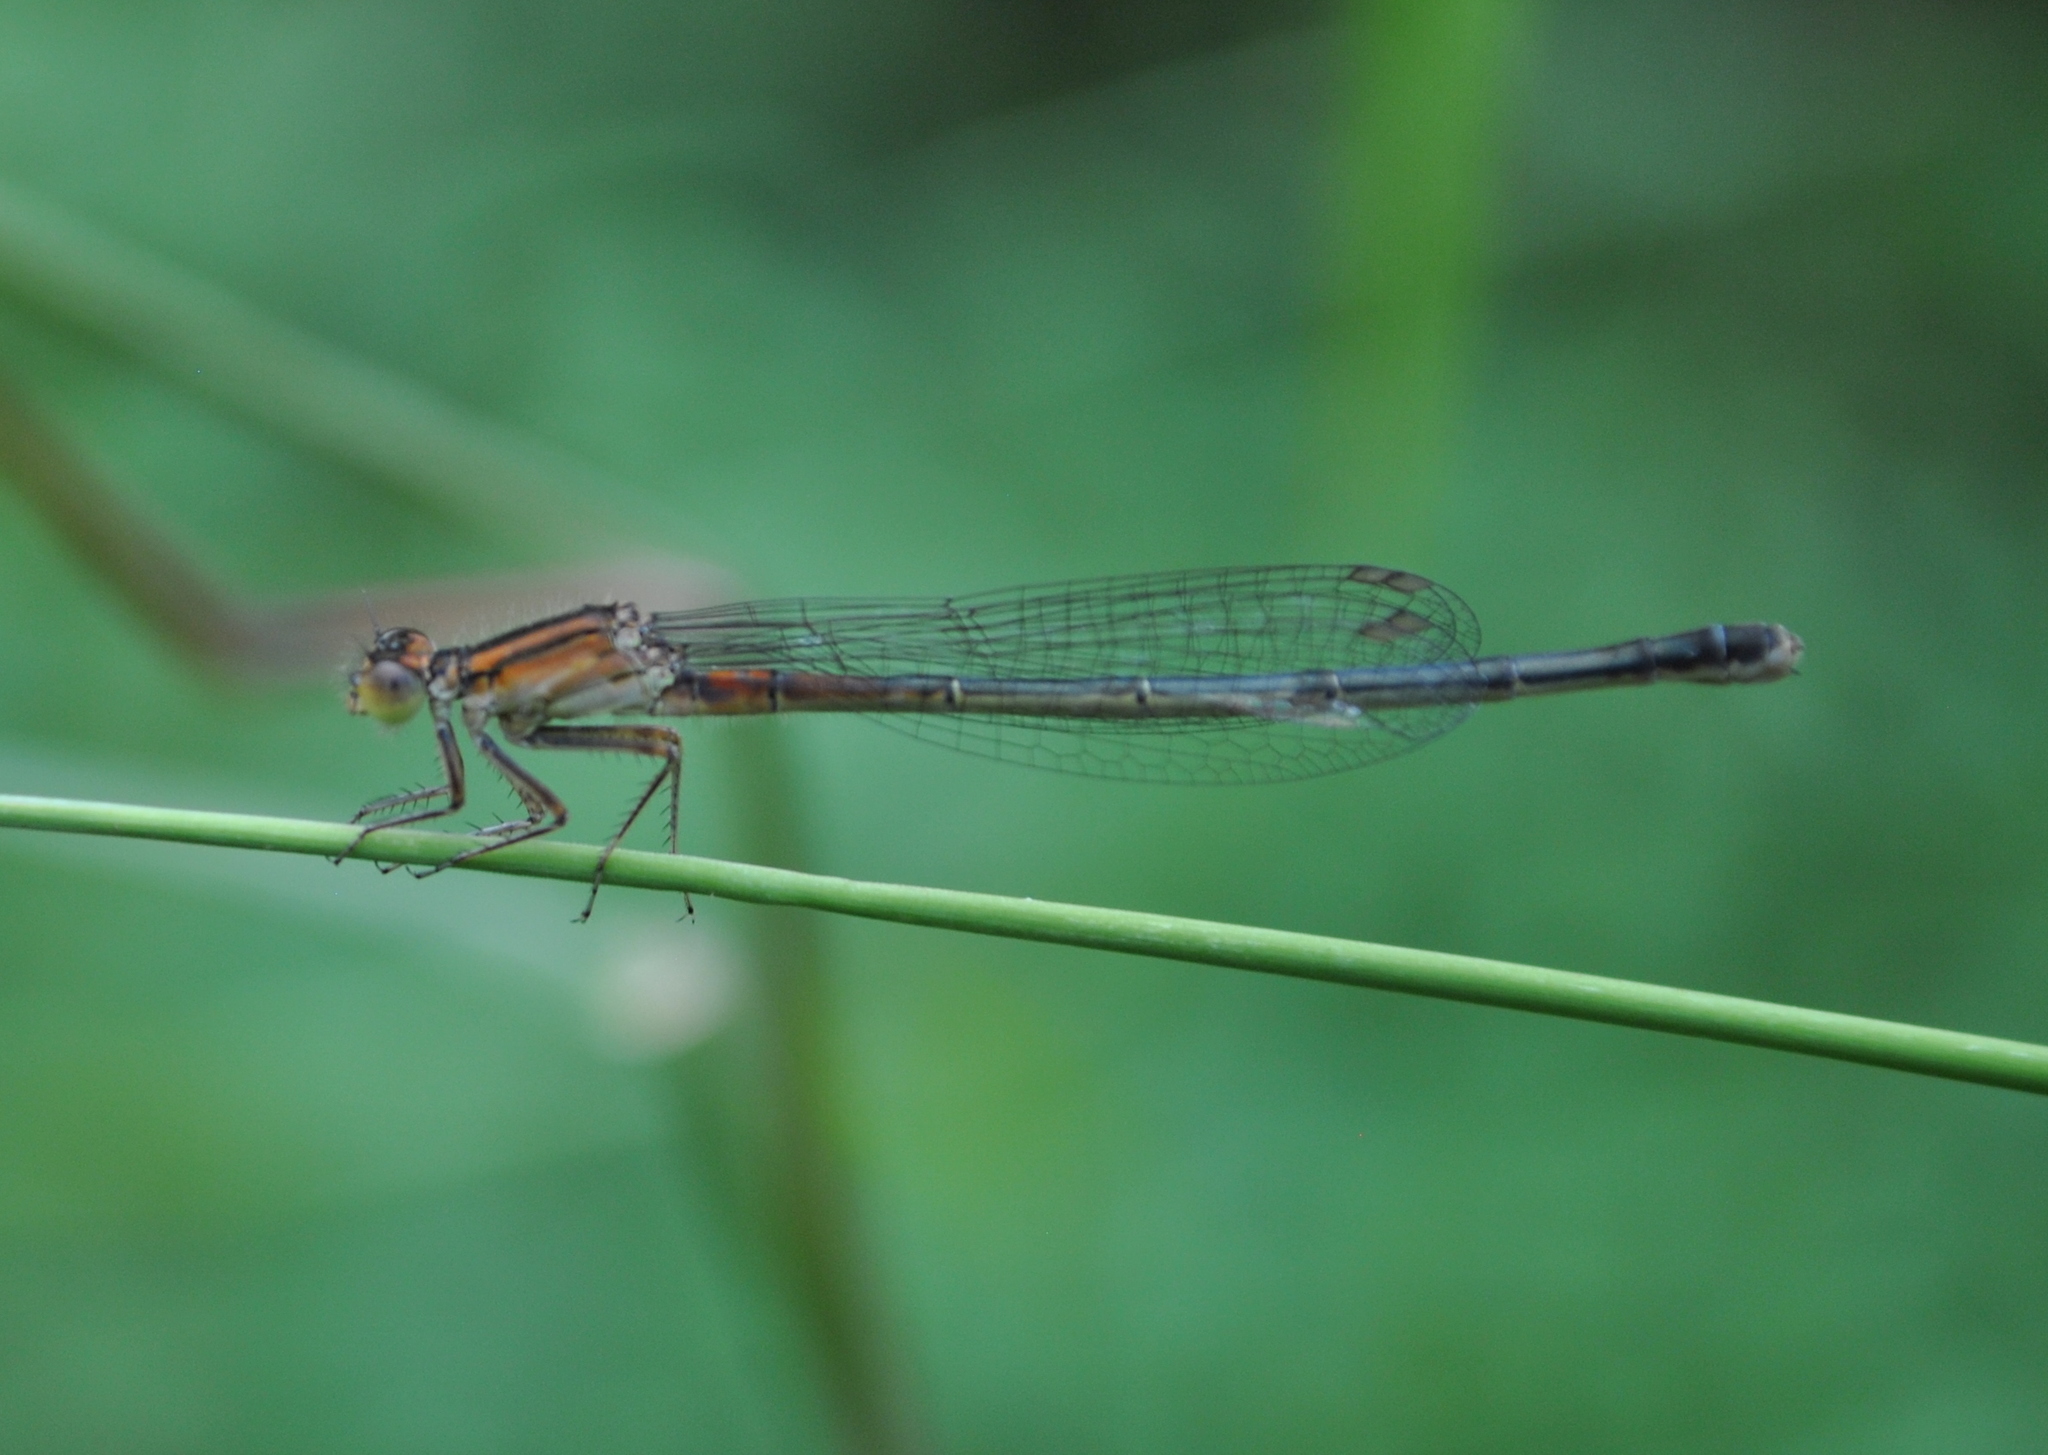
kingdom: Animalia
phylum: Arthropoda
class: Insecta
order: Odonata
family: Coenagrionidae
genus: Ischnura
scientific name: Ischnura verticalis
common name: Eastern forktail
